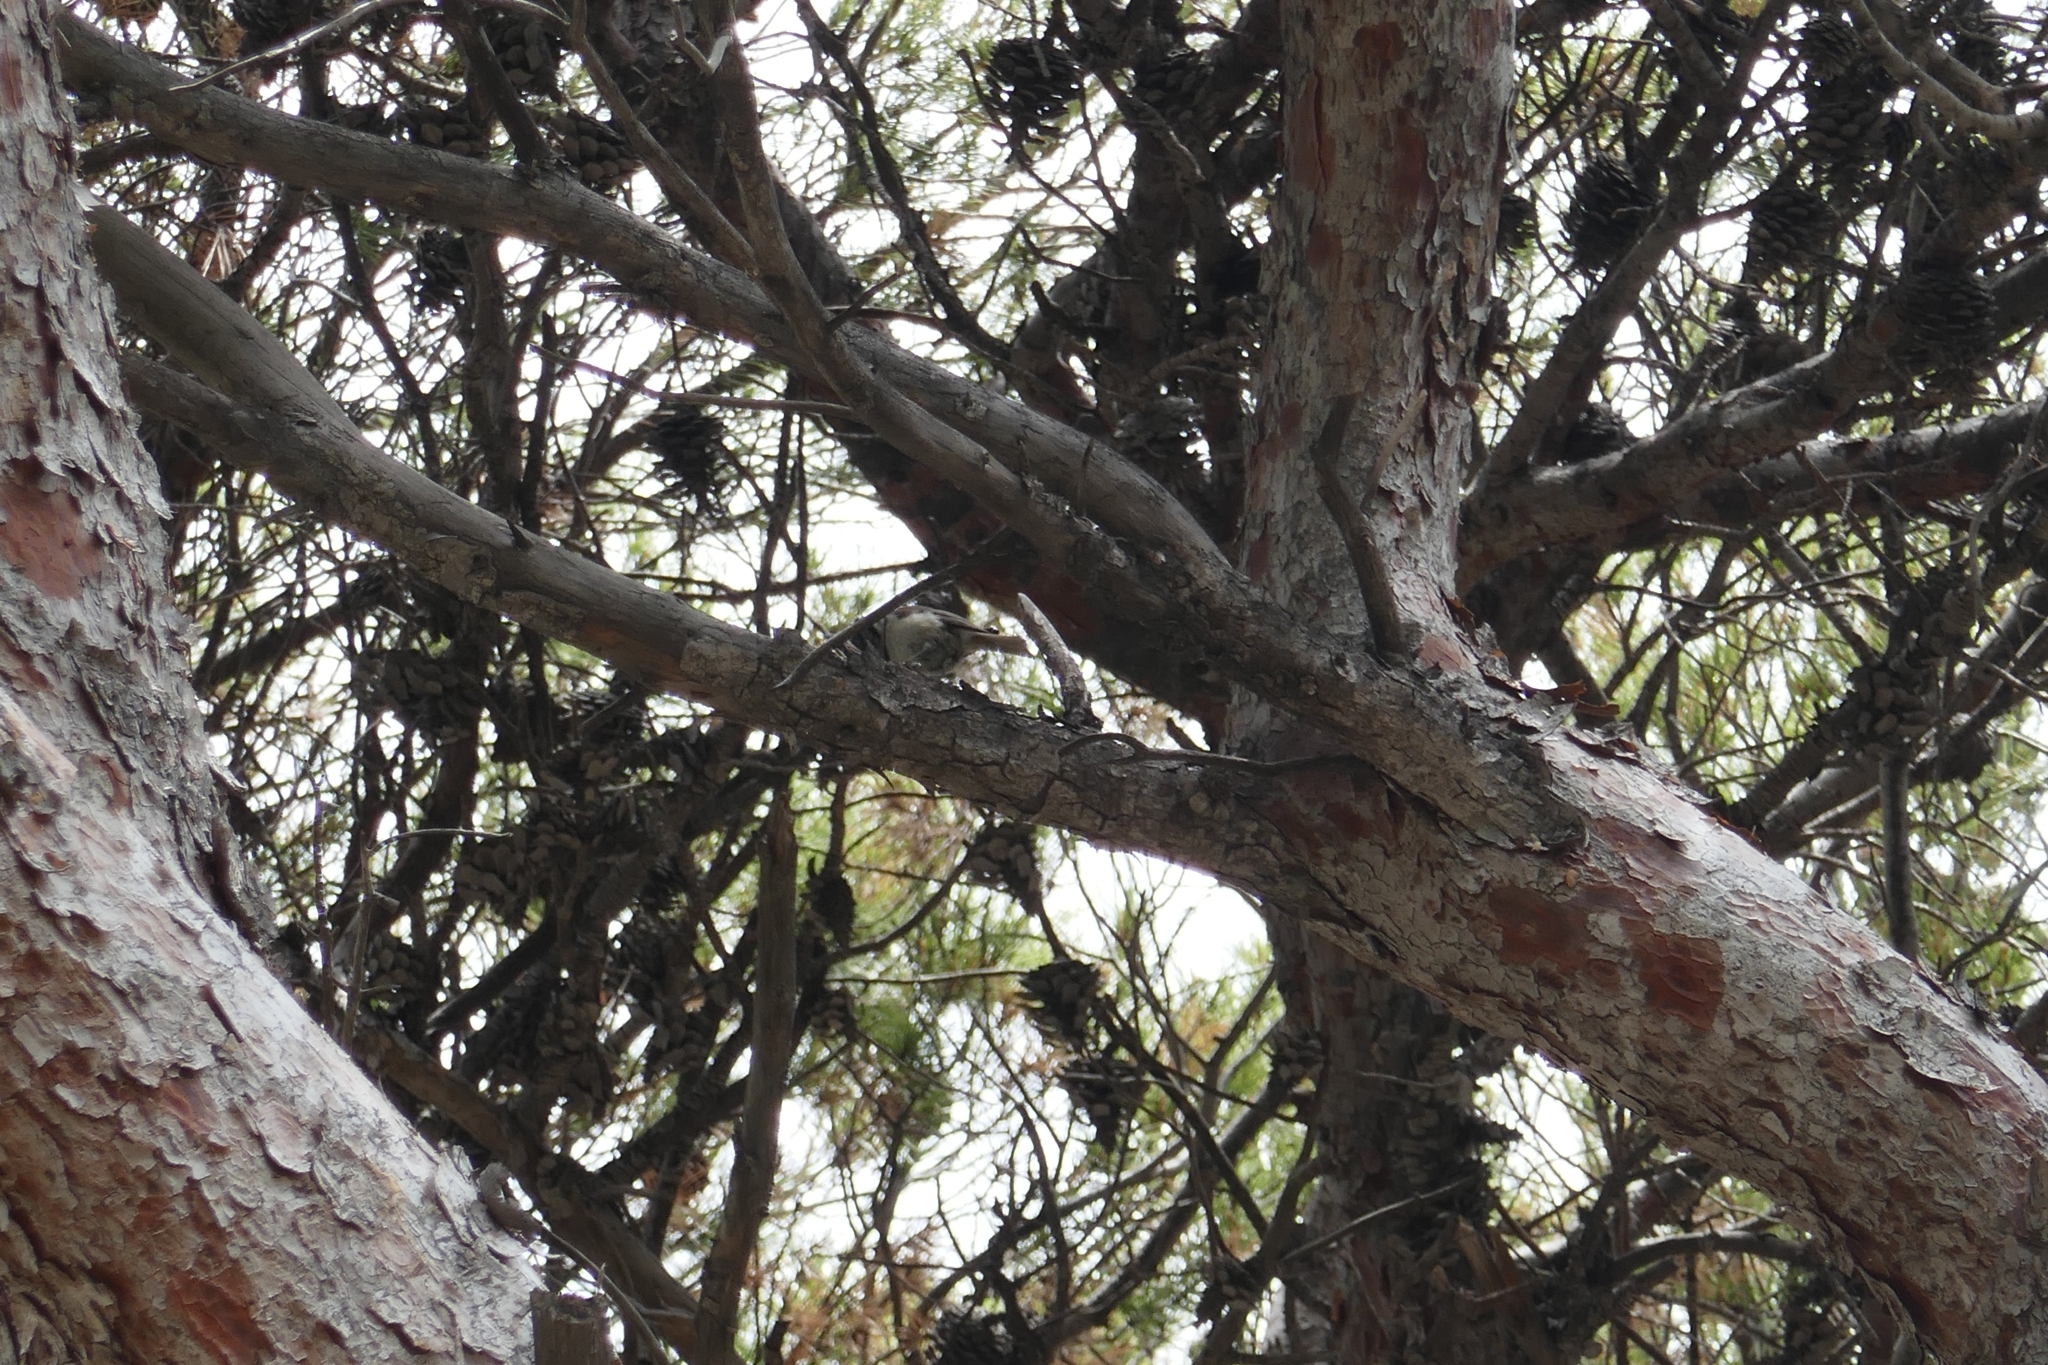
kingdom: Animalia
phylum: Chordata
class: Aves
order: Passeriformes
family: Paridae
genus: Lophophanes
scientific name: Lophophanes cristatus
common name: European crested tit
